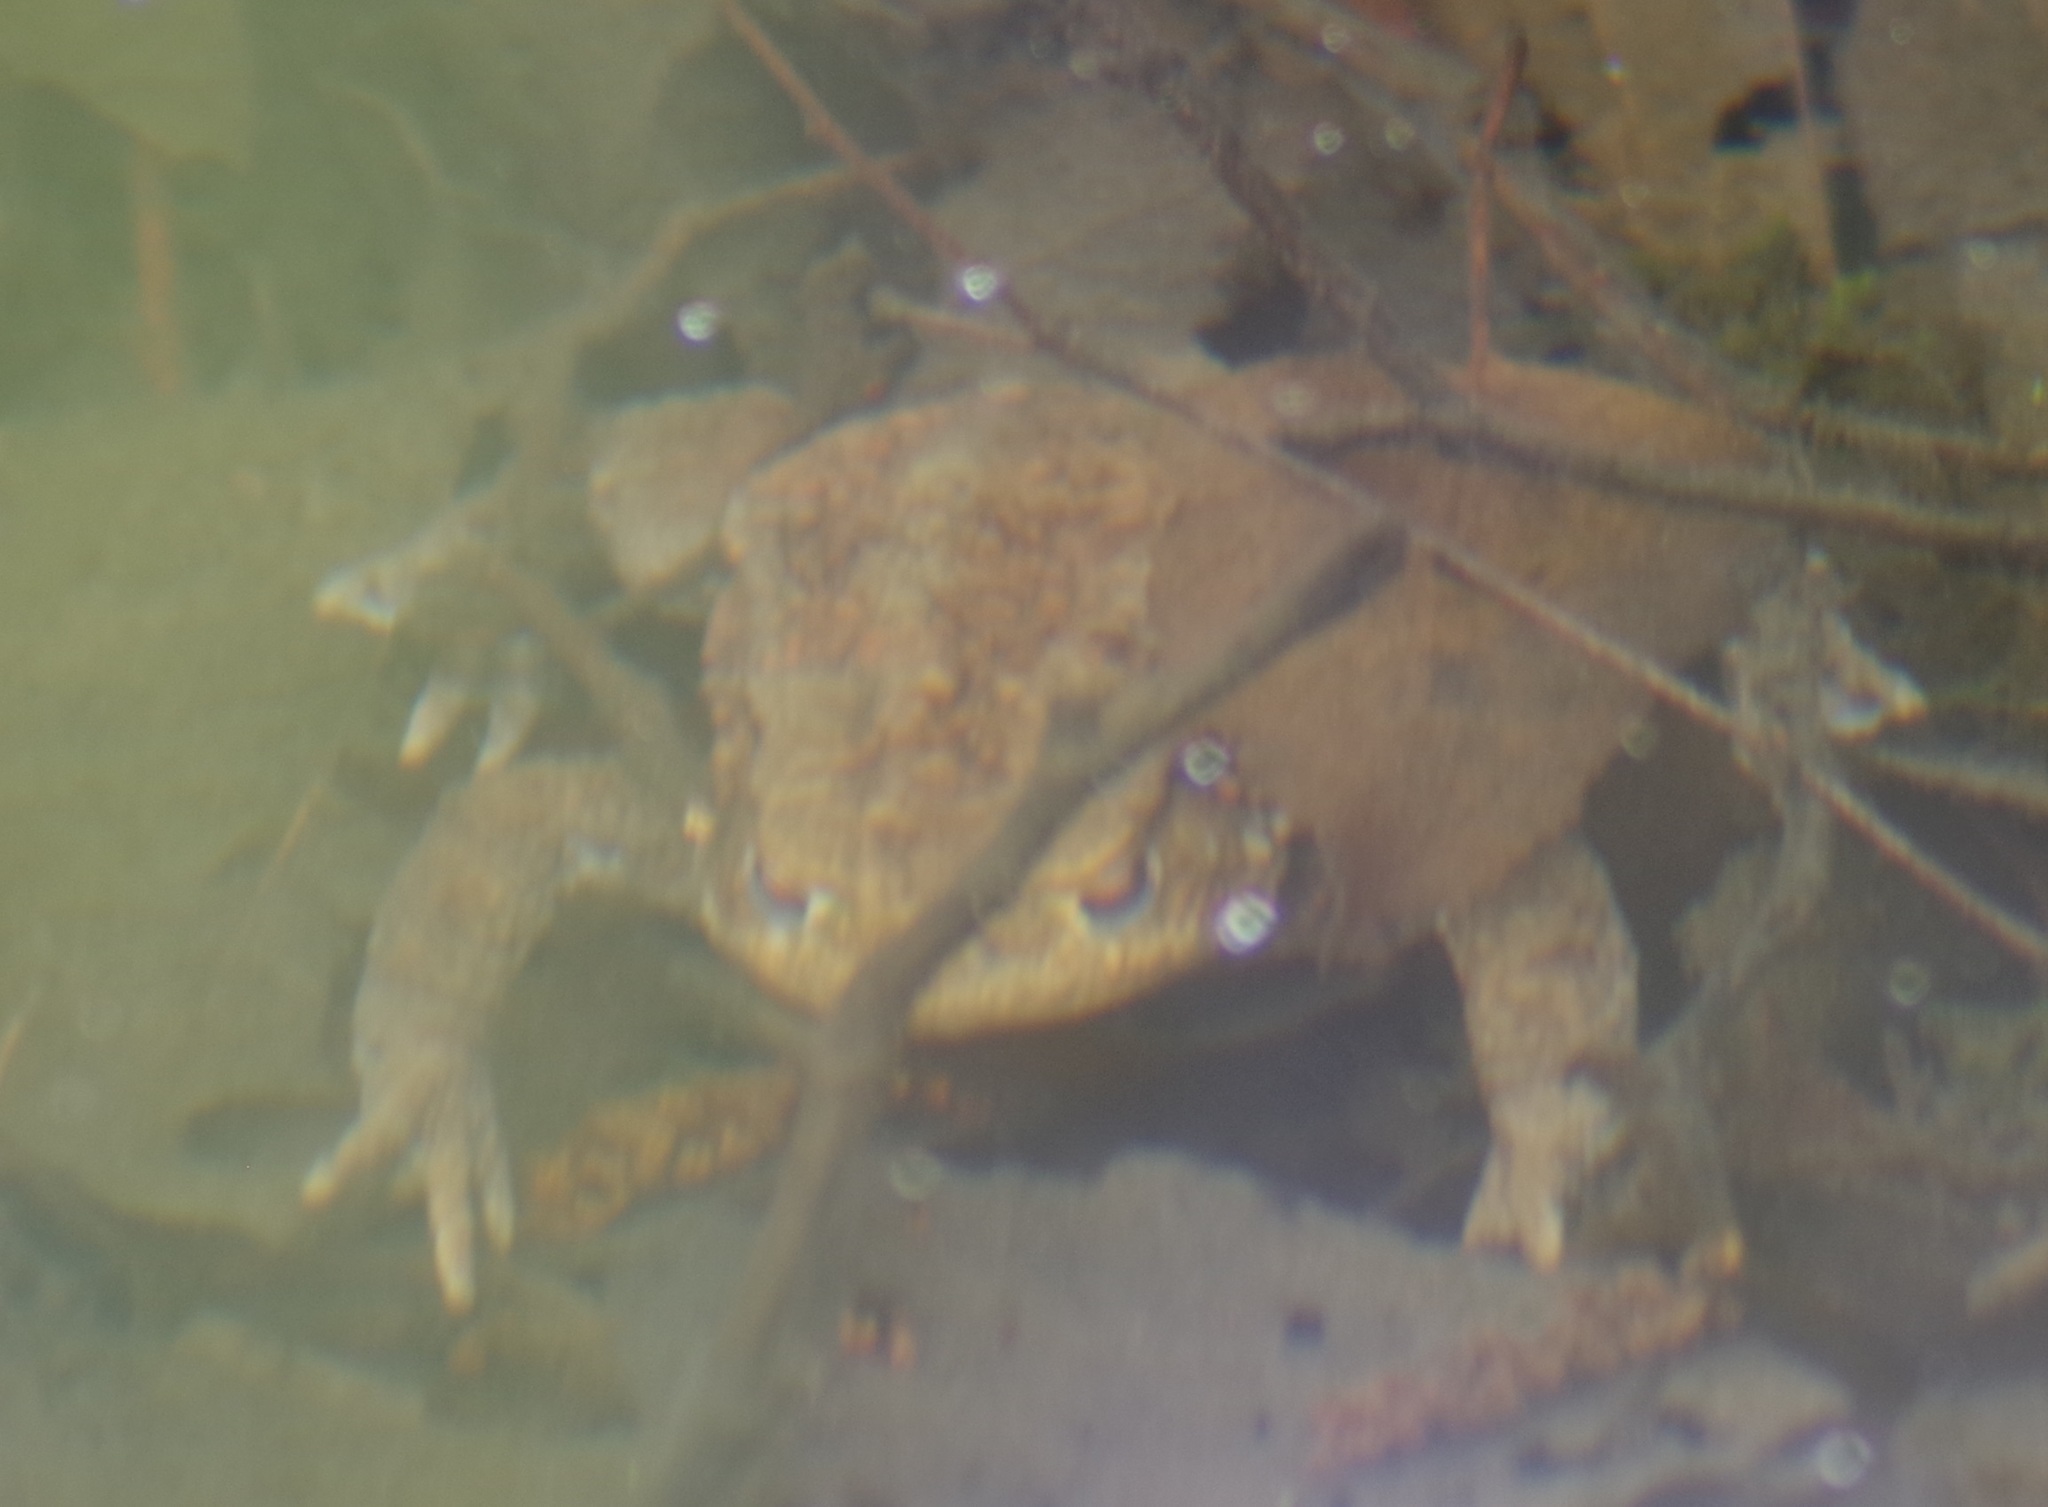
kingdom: Animalia
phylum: Chordata
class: Amphibia
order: Anura
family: Bufonidae
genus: Bufo
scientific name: Bufo bufo
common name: Common toad
